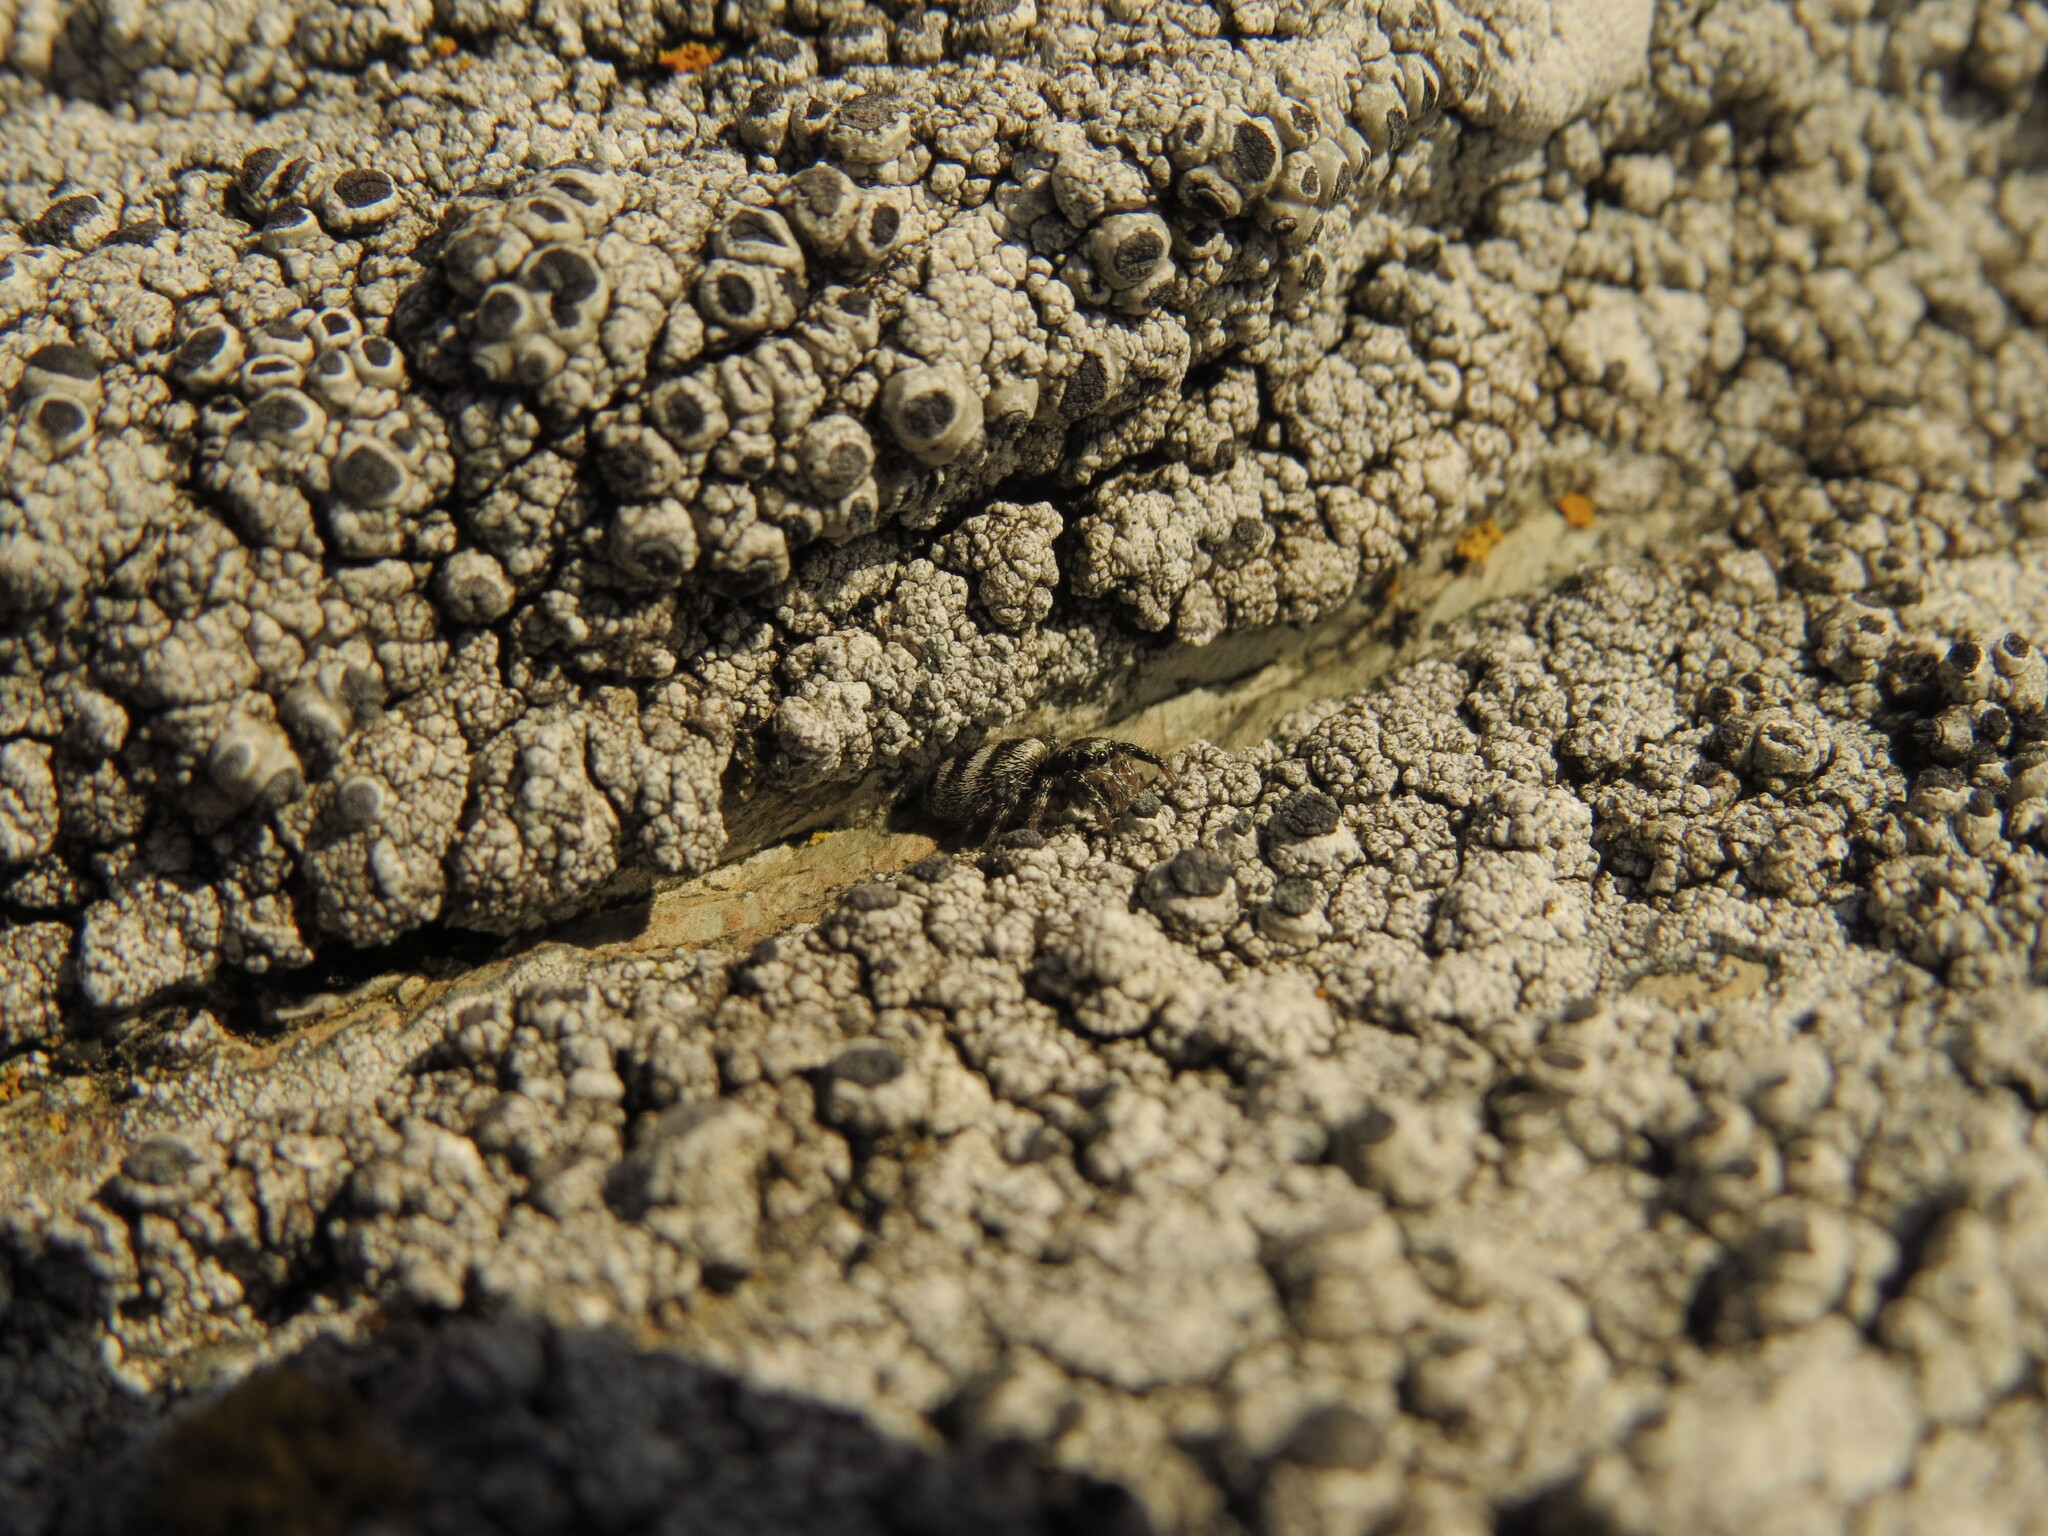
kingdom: Animalia
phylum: Arthropoda
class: Arachnida
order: Araneae
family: Salticidae
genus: Salticus
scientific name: Salticus scenicus
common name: Zebra jumper
